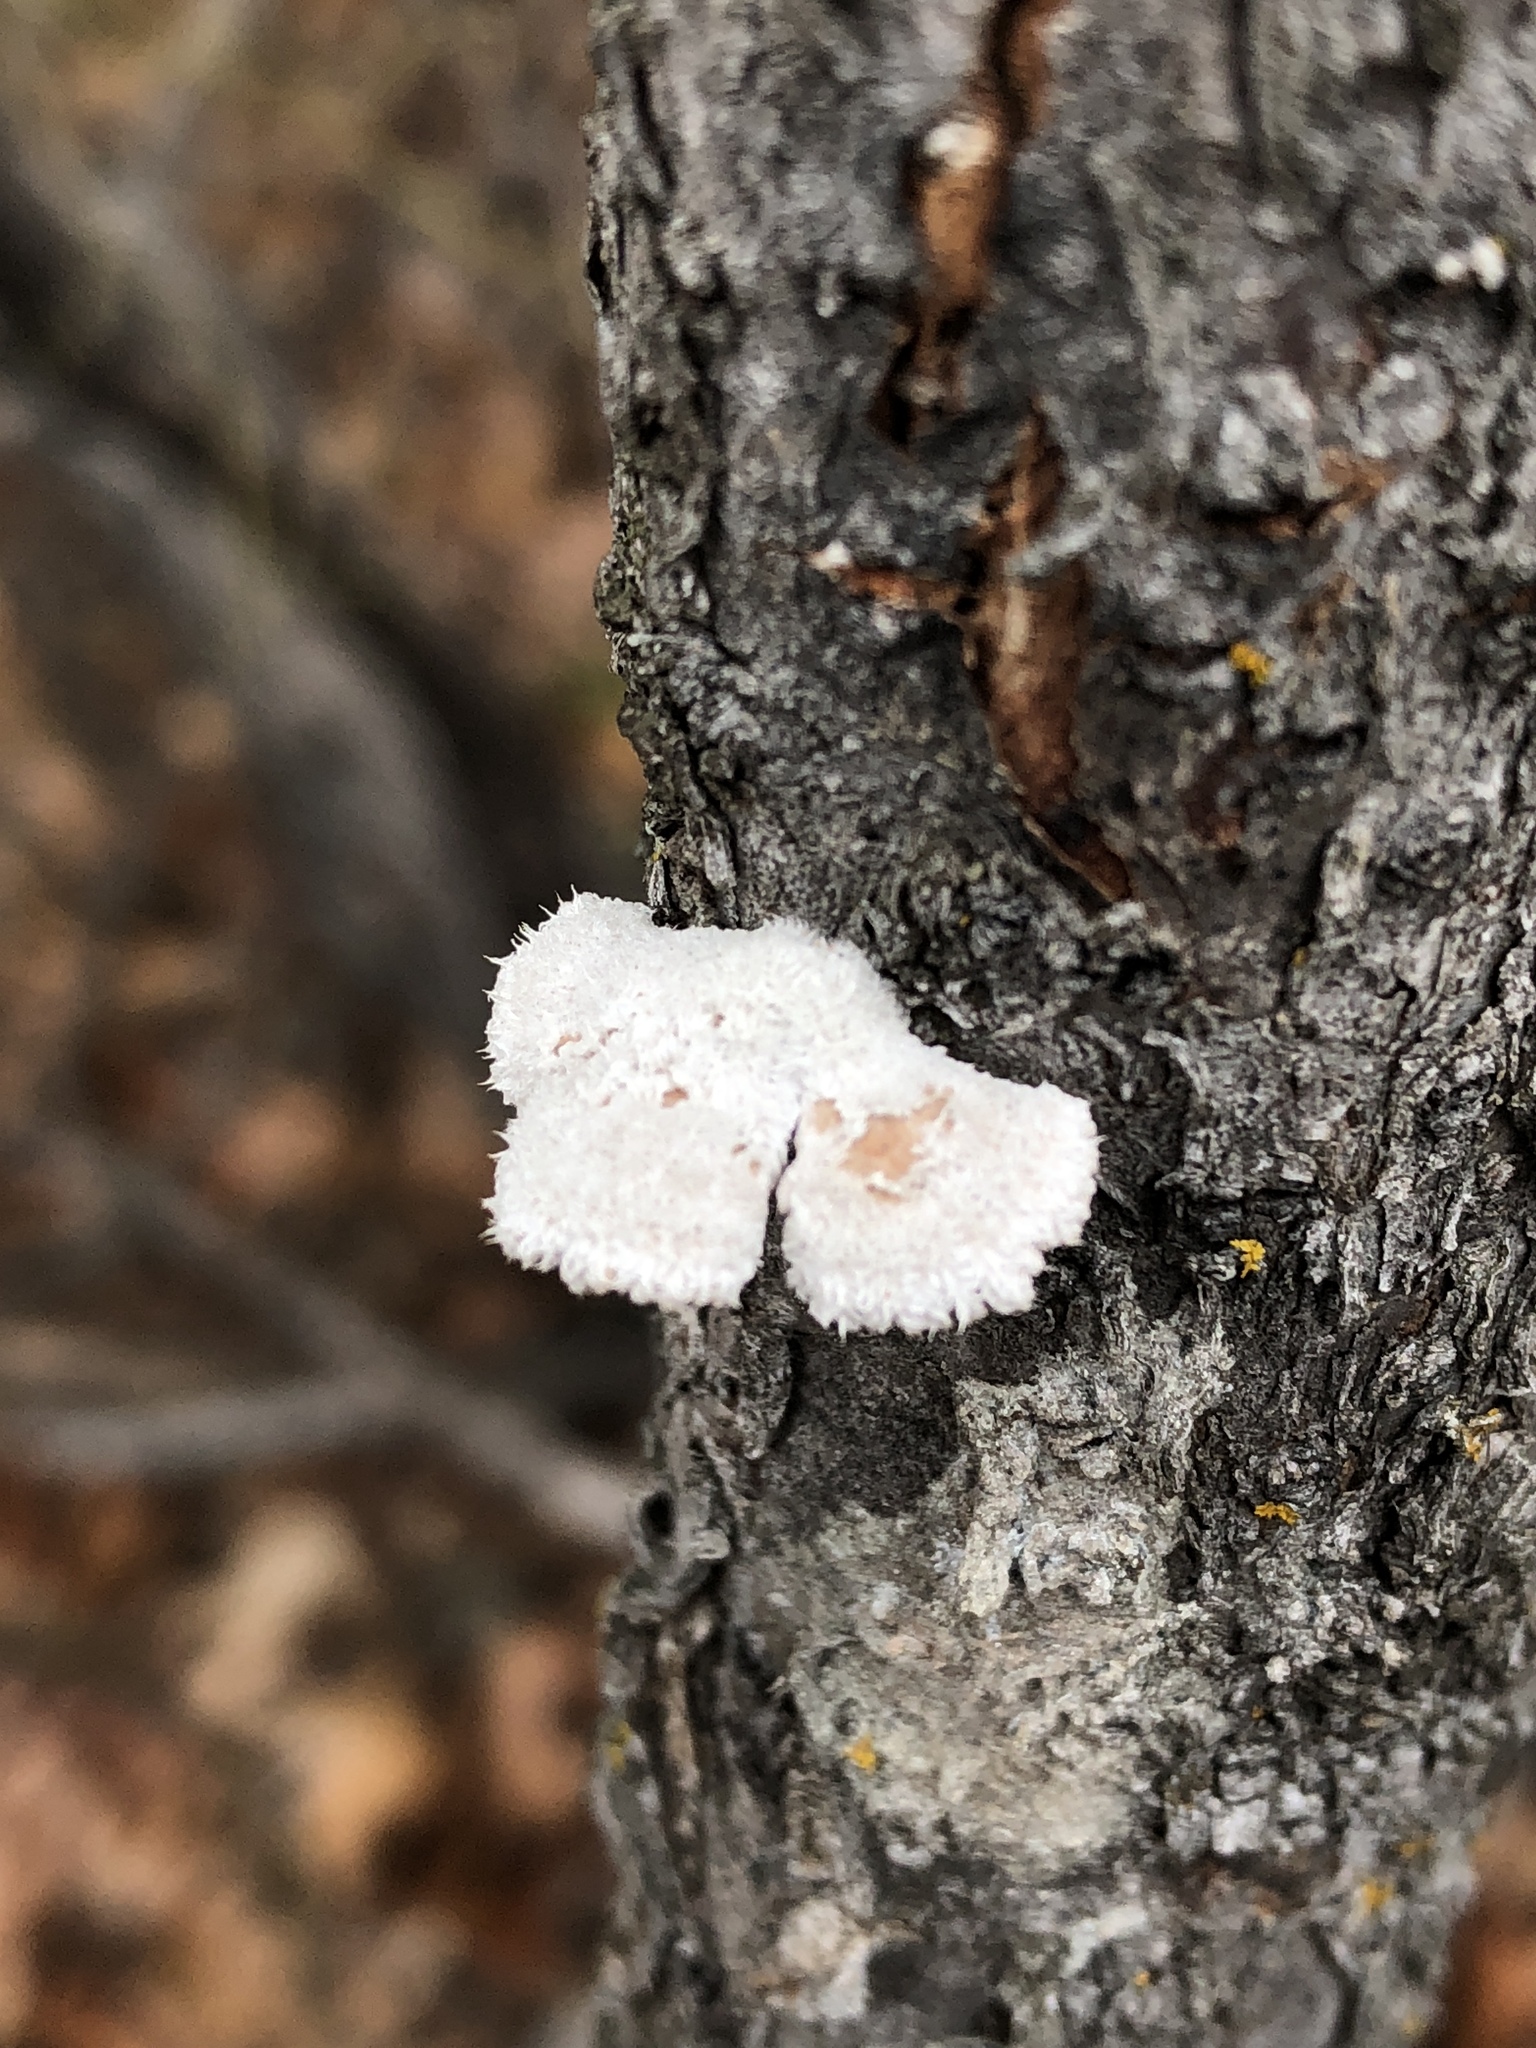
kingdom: Fungi
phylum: Basidiomycota
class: Agaricomycetes
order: Agaricales
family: Schizophyllaceae
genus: Schizophyllum
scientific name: Schizophyllum commune
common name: Common porecrust
